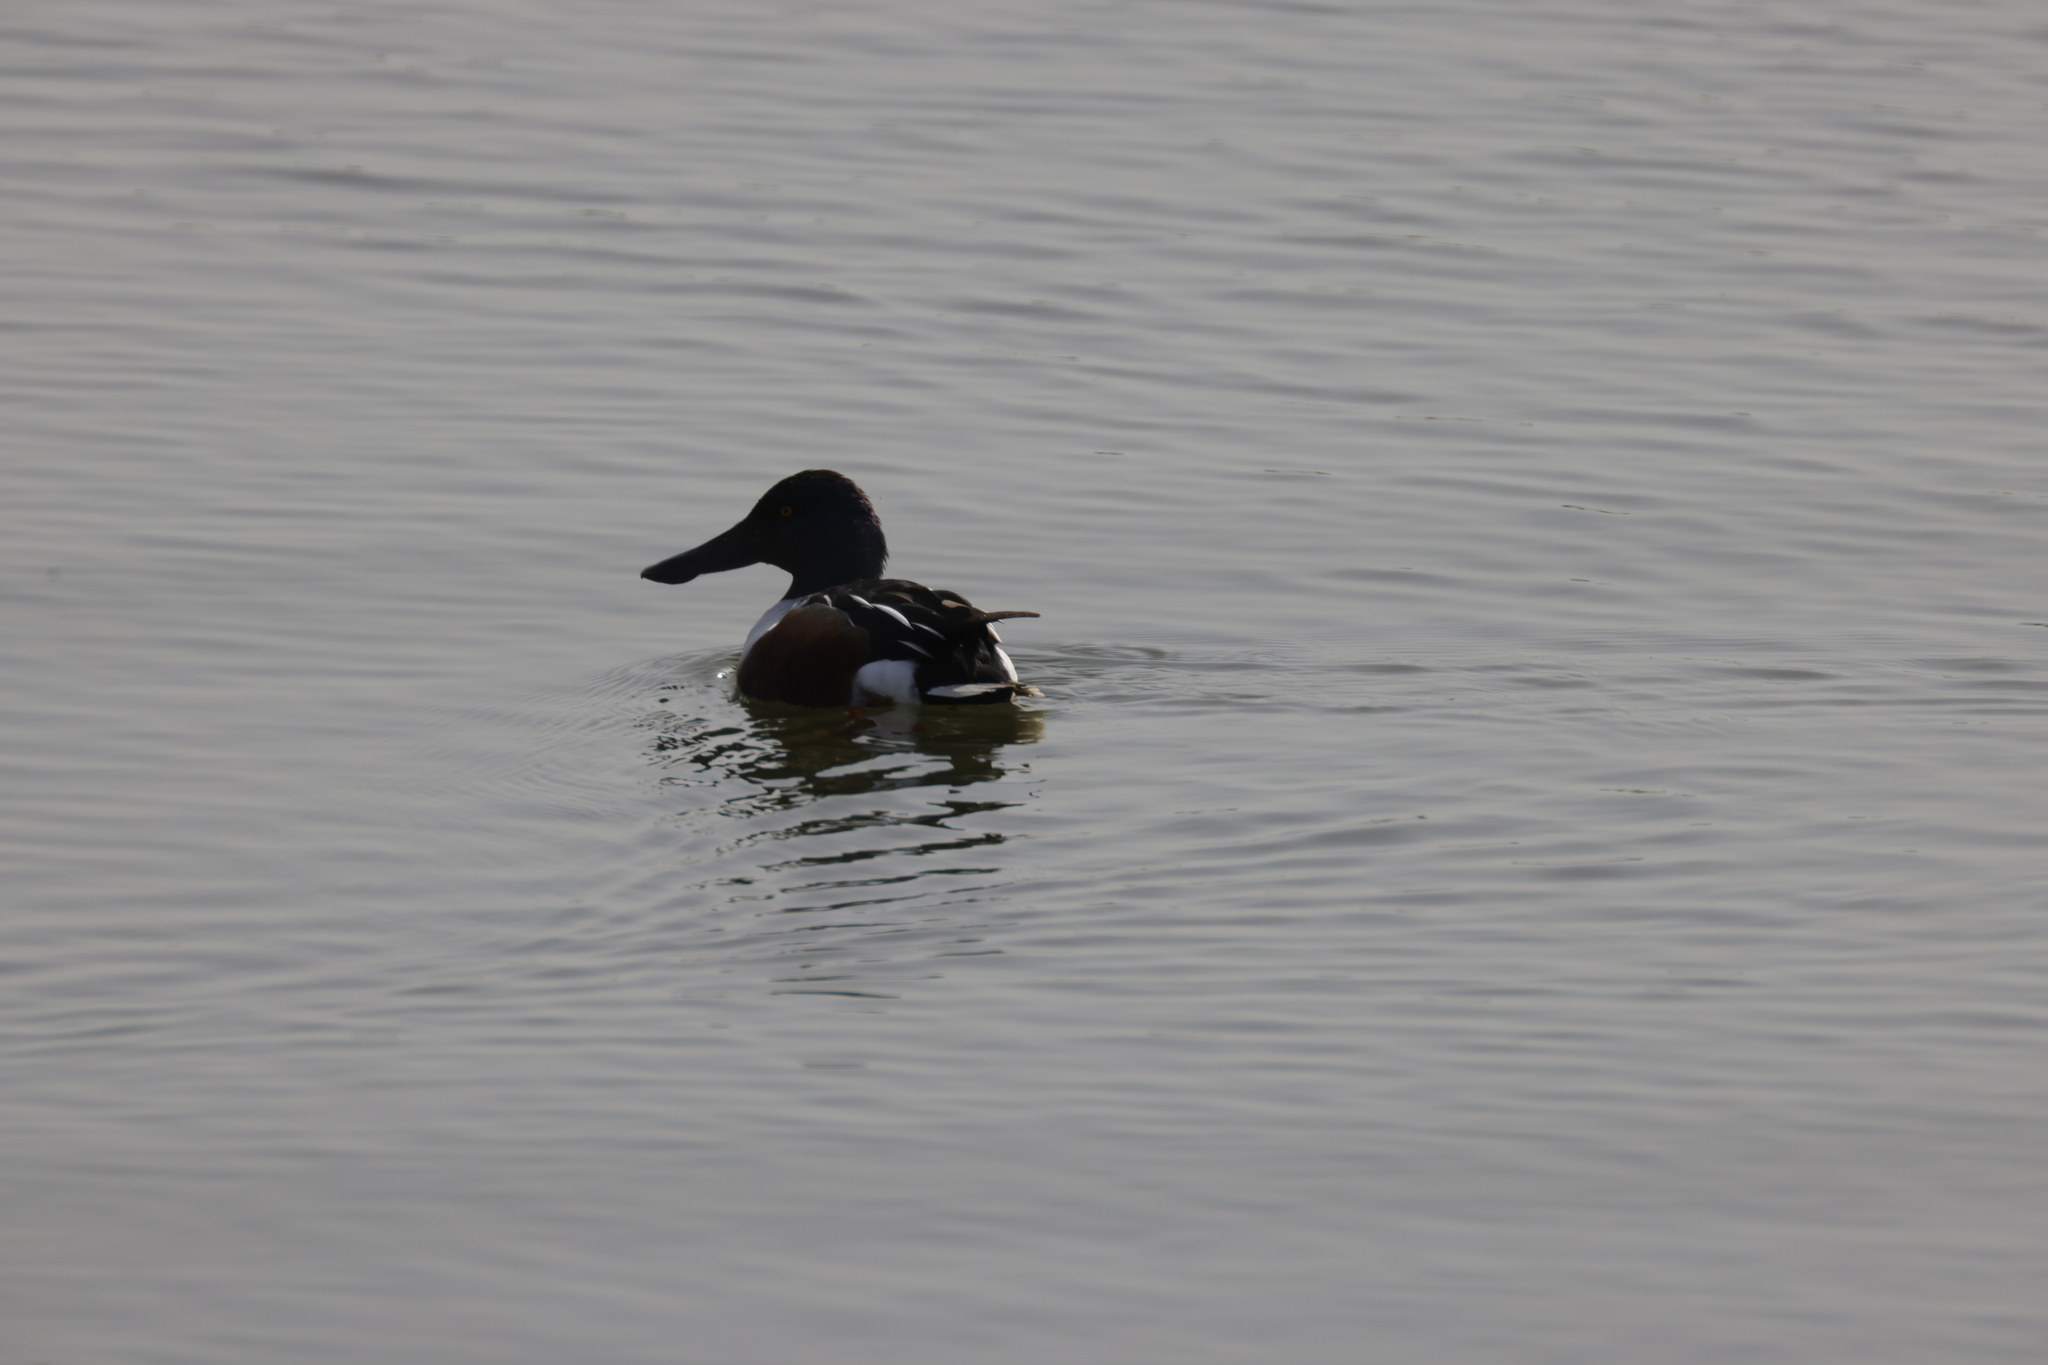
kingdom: Animalia
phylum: Chordata
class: Aves
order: Anseriformes
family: Anatidae
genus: Spatula
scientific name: Spatula clypeata
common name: Northern shoveler
